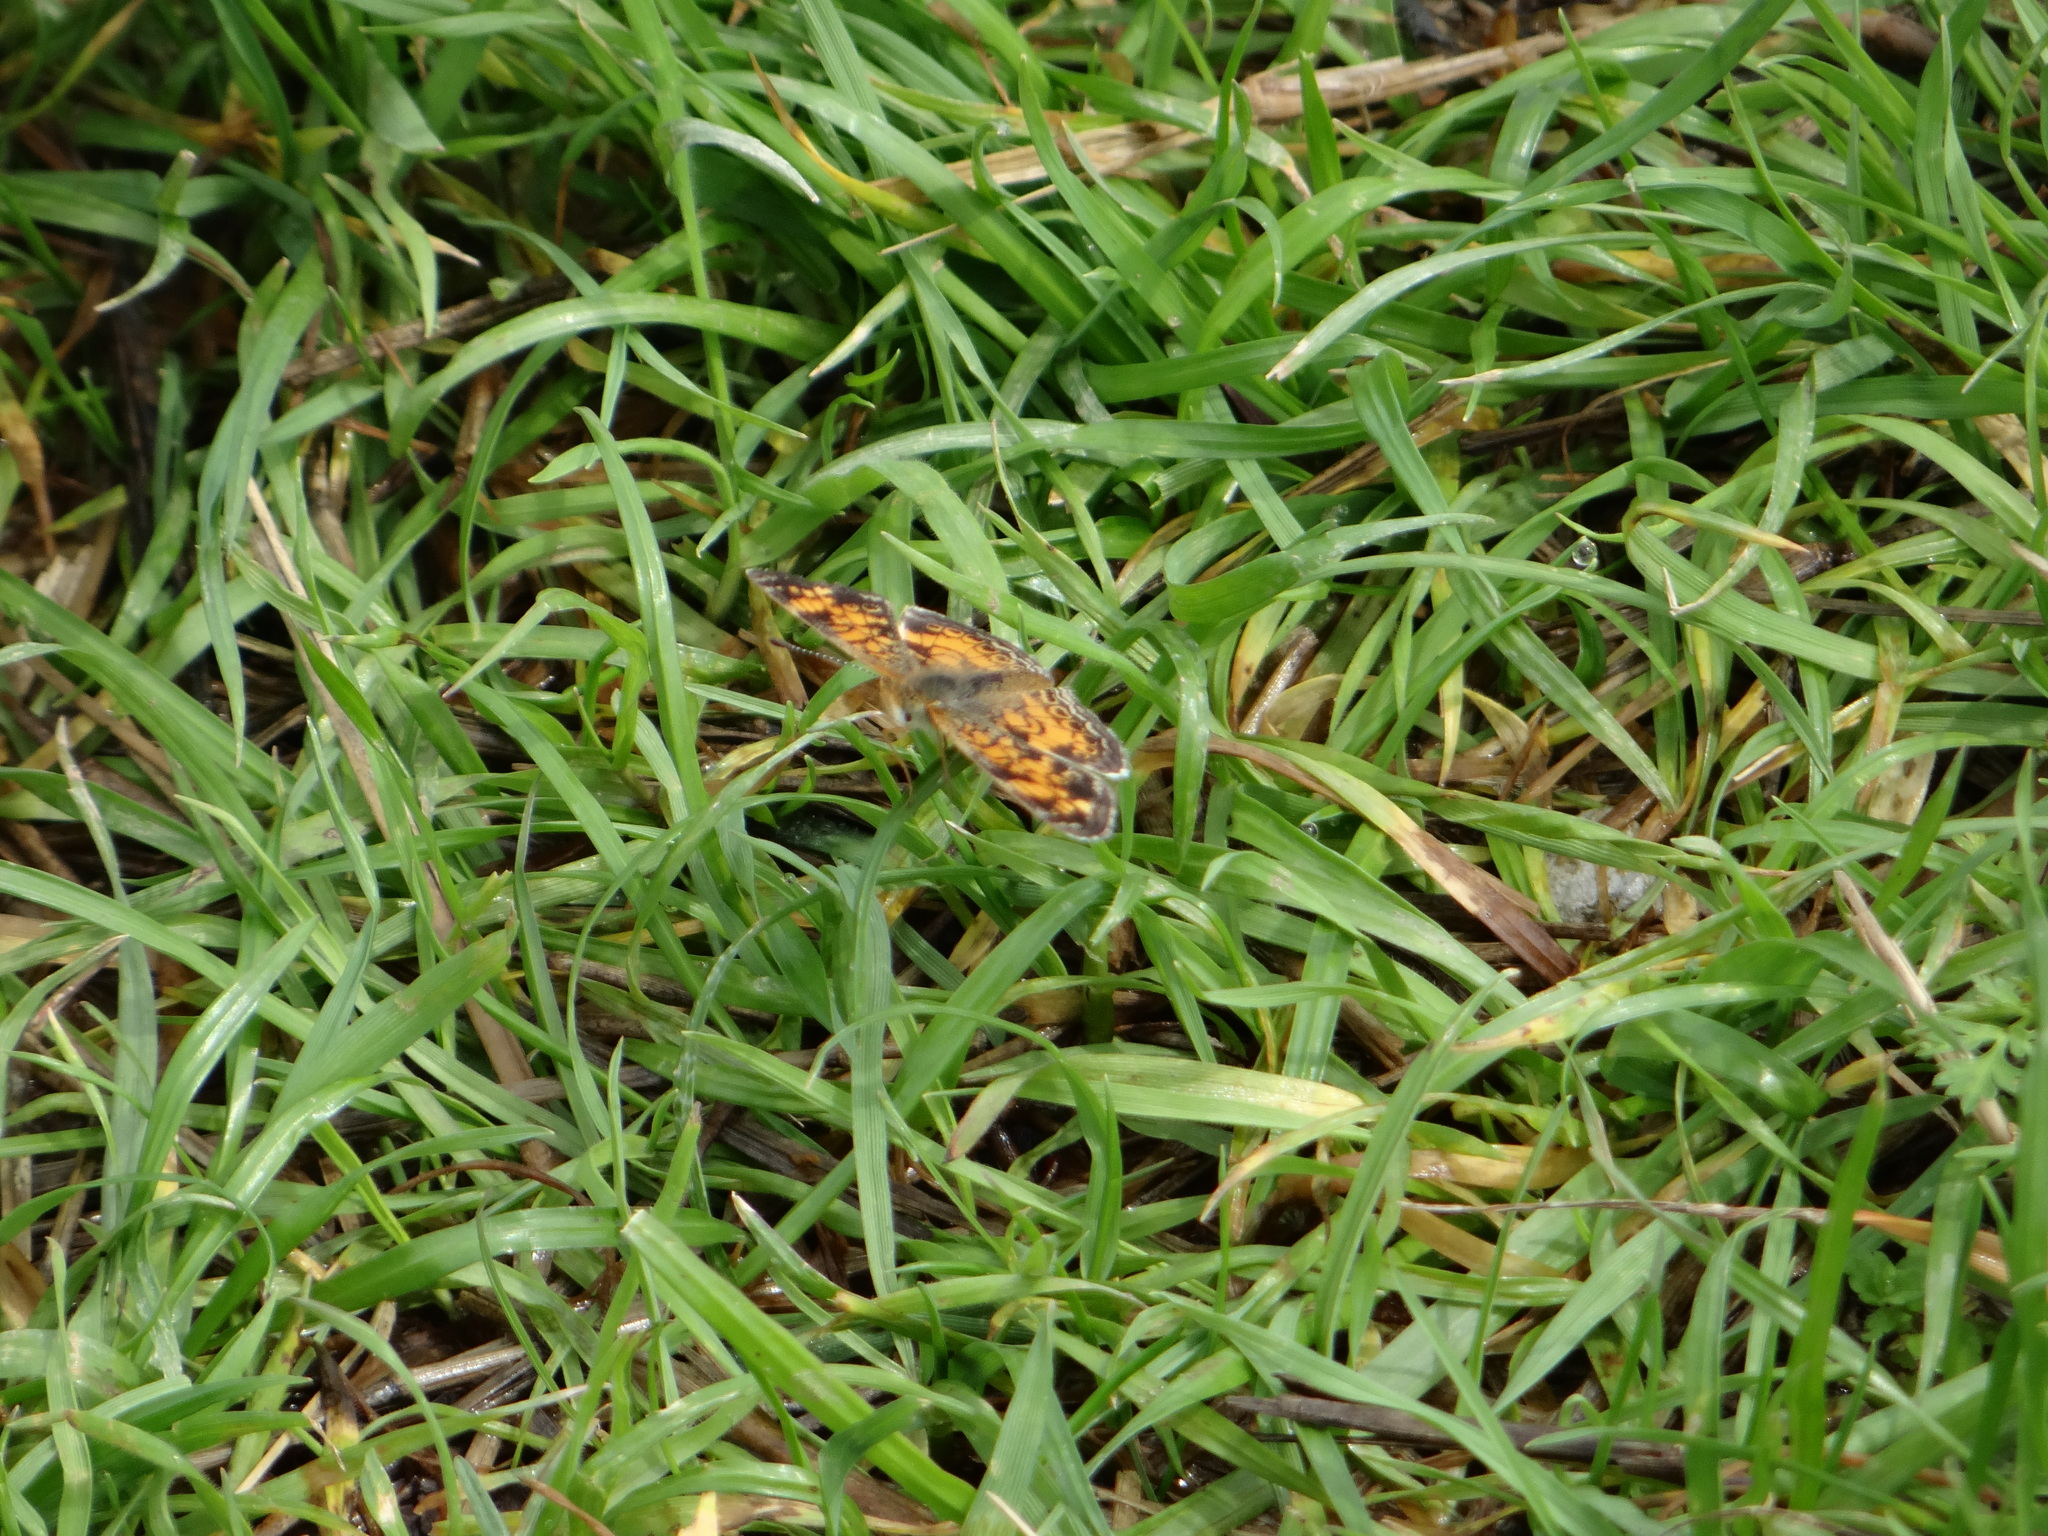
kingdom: Animalia
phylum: Arthropoda
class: Insecta
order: Lepidoptera
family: Nymphalidae
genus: Phyciodes
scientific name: Phyciodes tharos
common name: Pearl crescent
